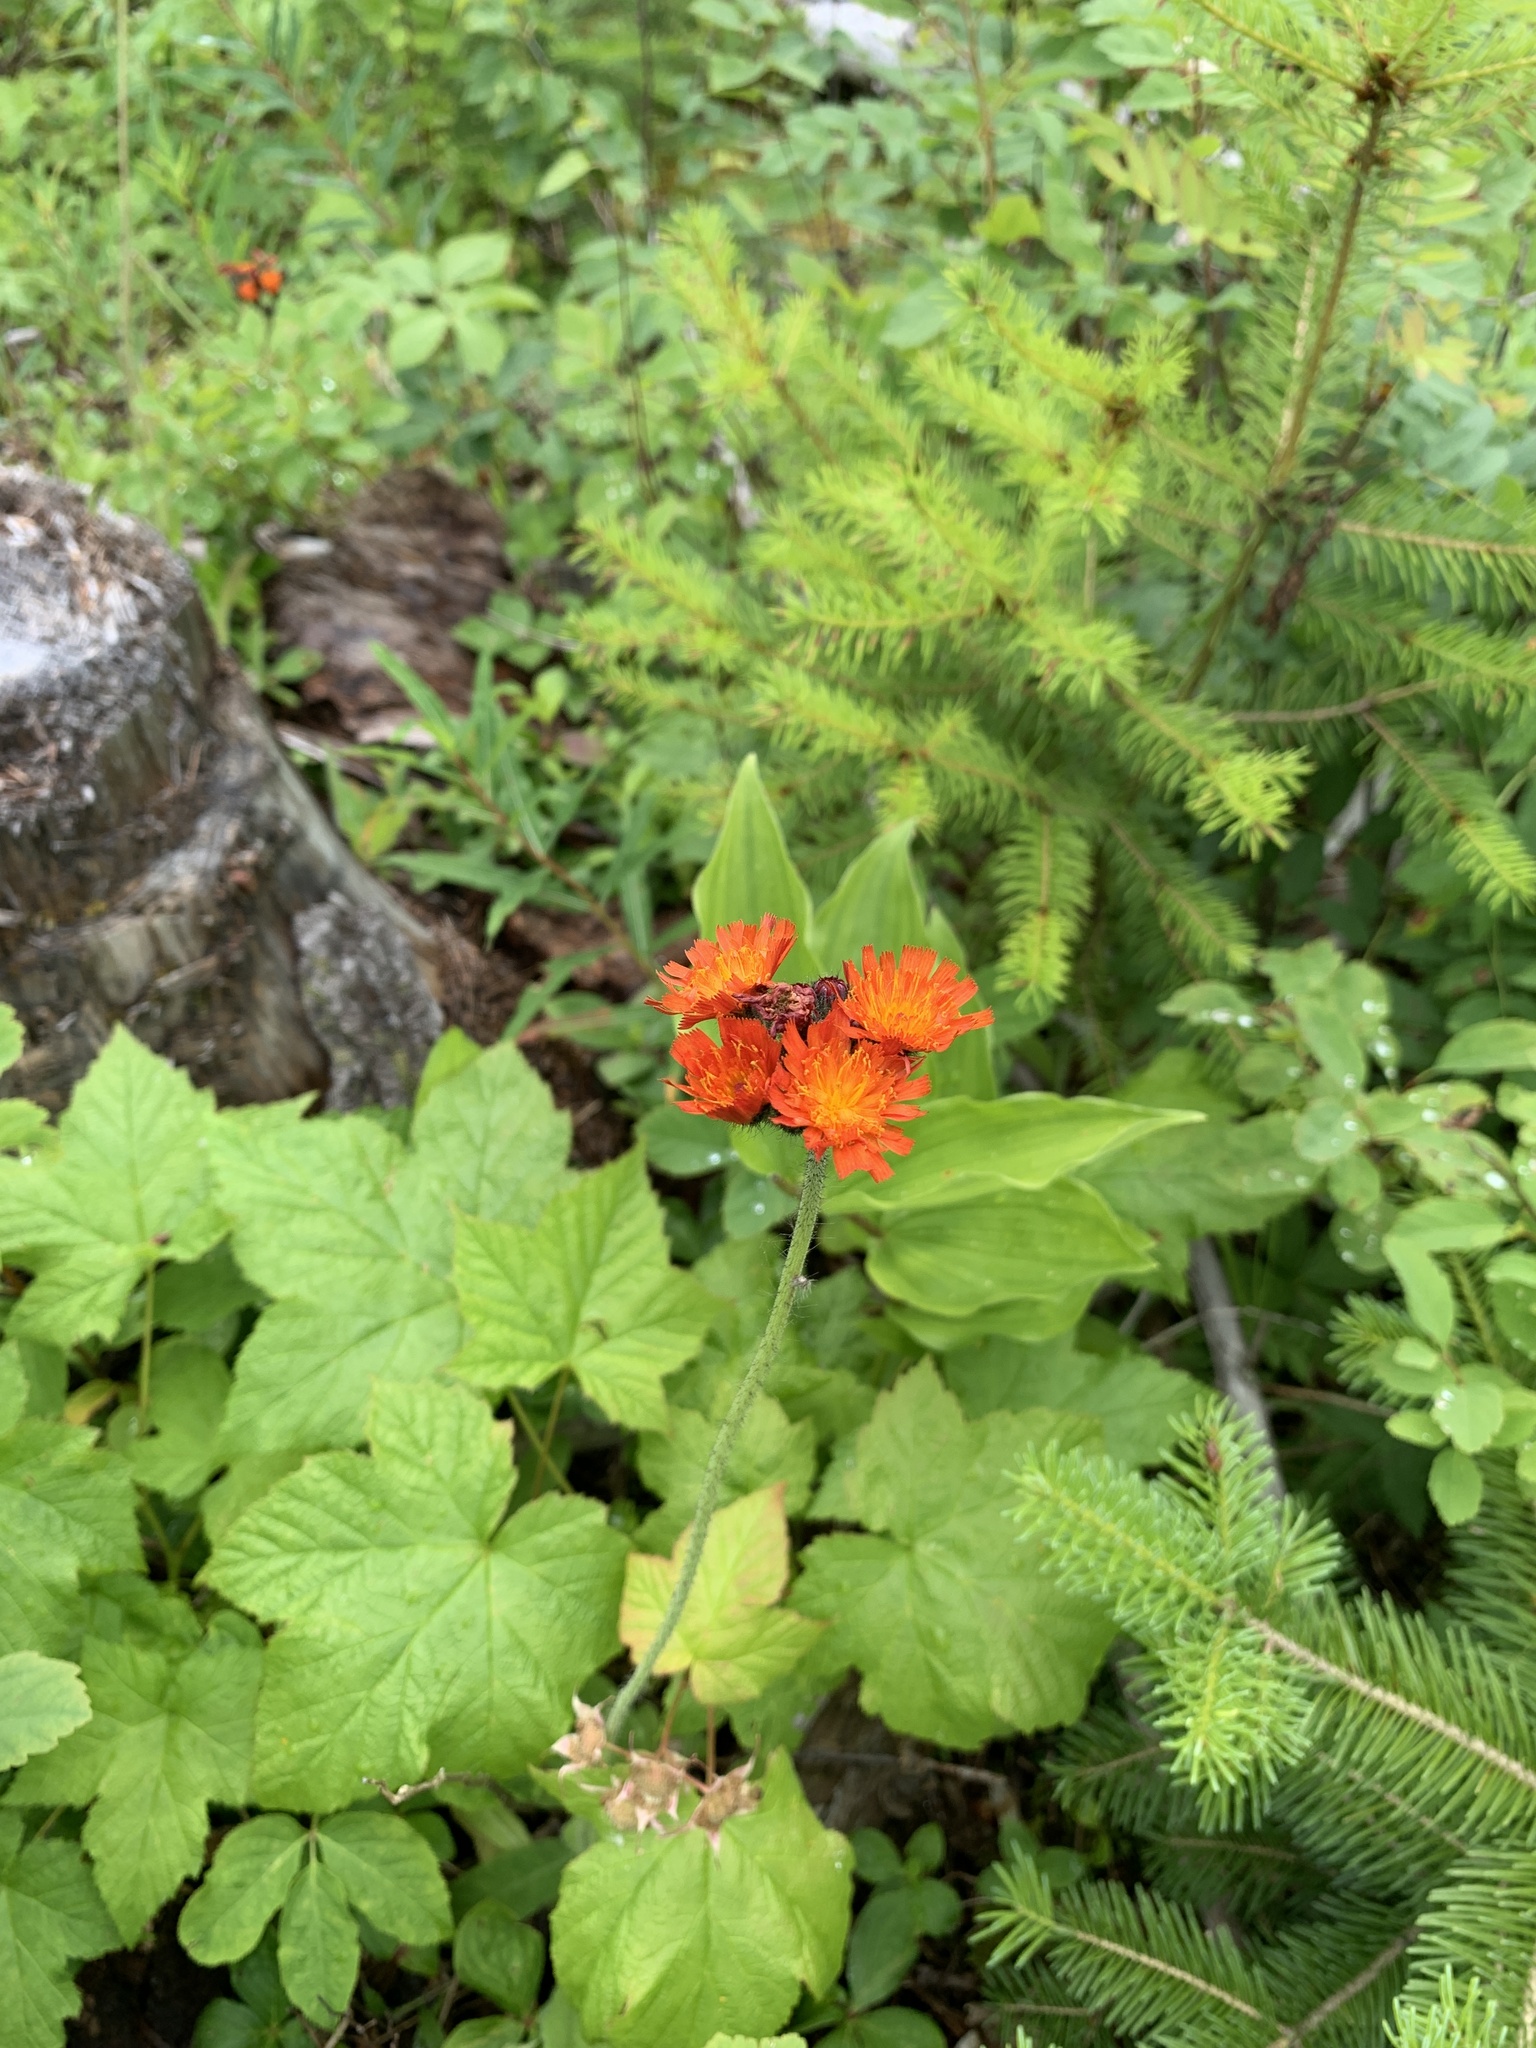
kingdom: Plantae
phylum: Tracheophyta
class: Magnoliopsida
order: Asterales
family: Asteraceae
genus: Pilosella
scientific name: Pilosella aurantiaca
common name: Fox-and-cubs
